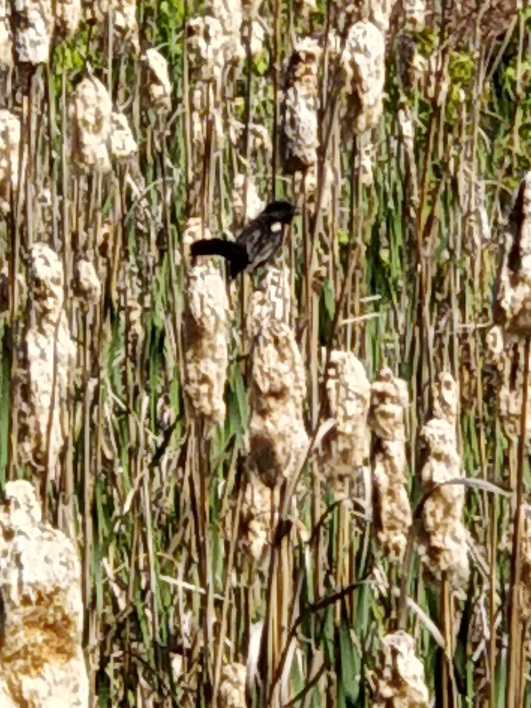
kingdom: Animalia
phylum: Chordata
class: Aves
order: Passeriformes
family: Icteridae
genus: Agelaius
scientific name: Agelaius phoeniceus
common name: Red-winged blackbird
